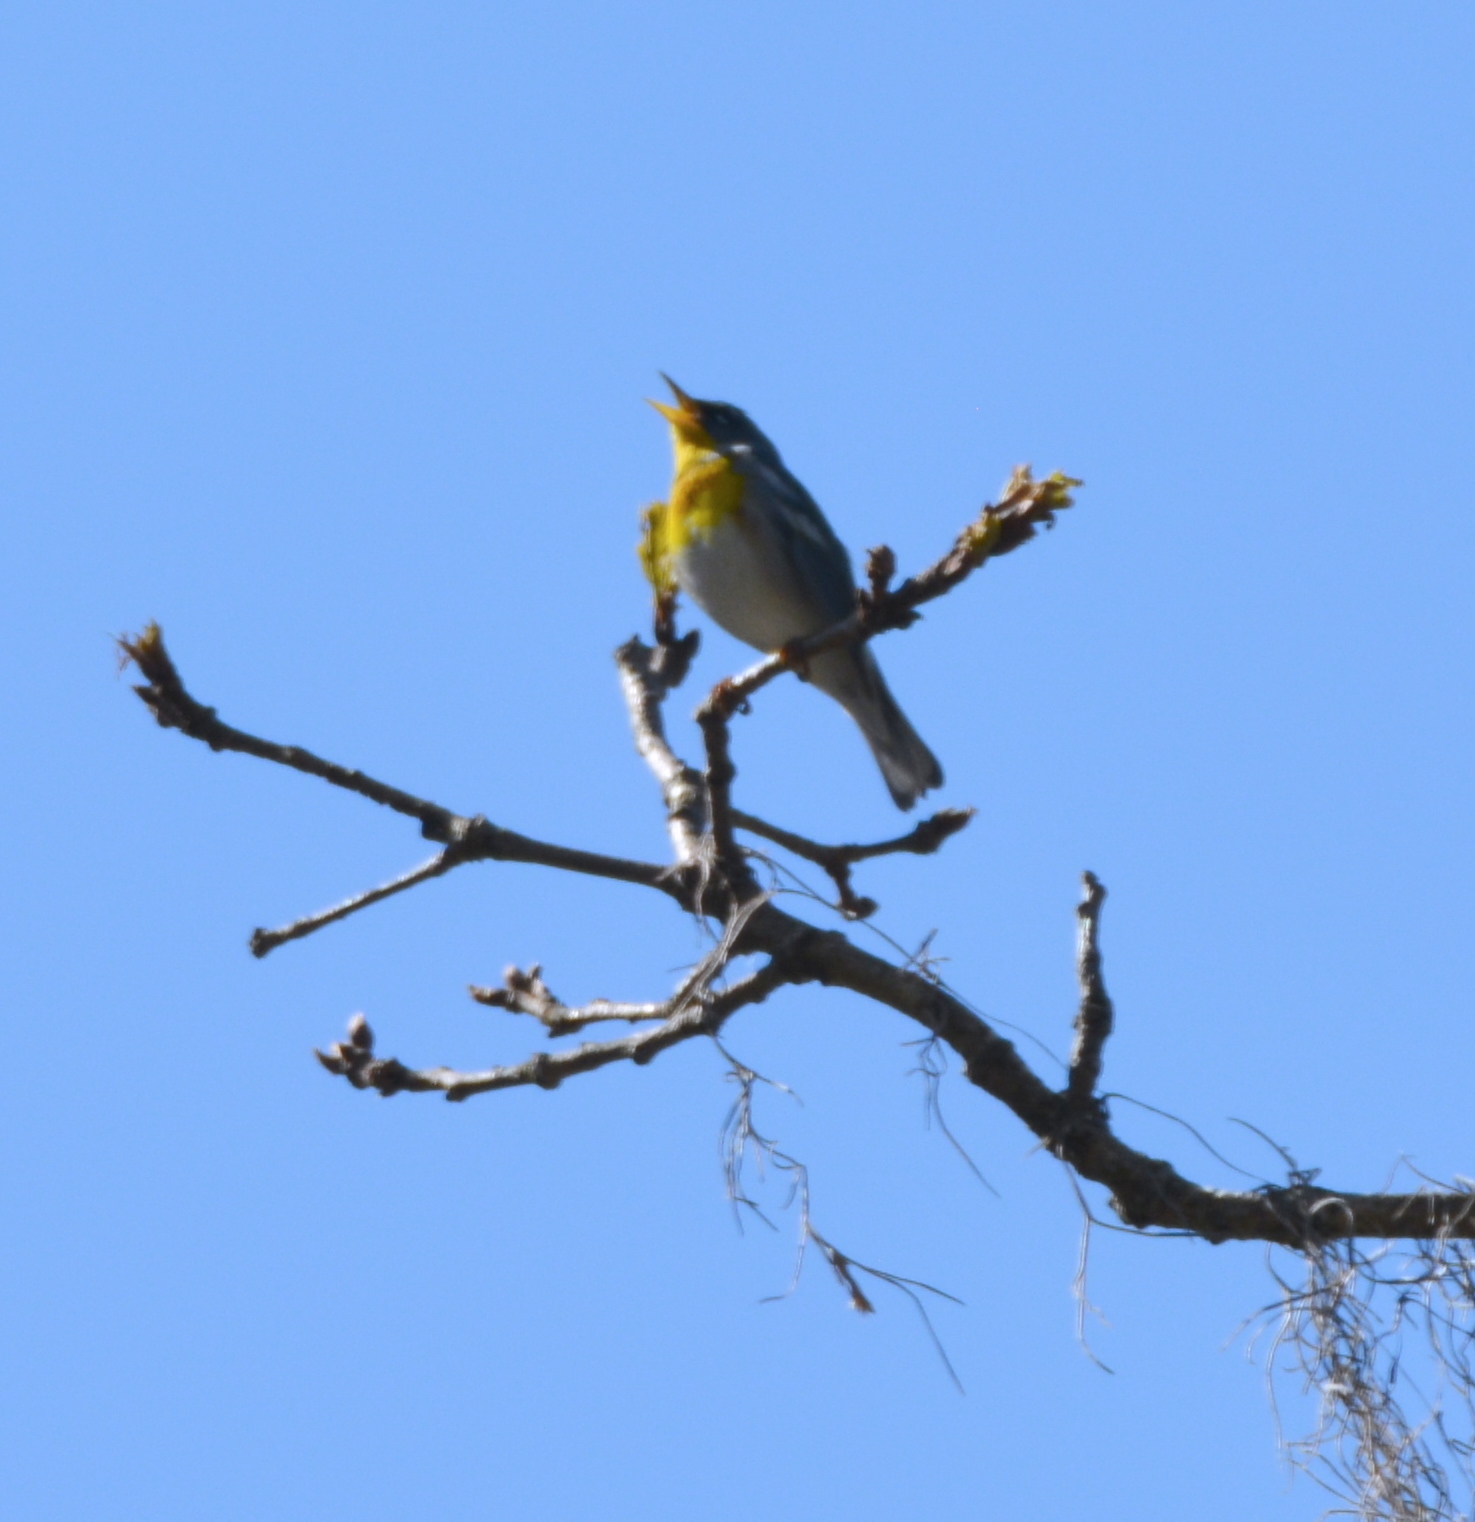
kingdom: Animalia
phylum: Chordata
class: Aves
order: Passeriformes
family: Parulidae
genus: Setophaga
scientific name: Setophaga americana
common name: Northern parula
